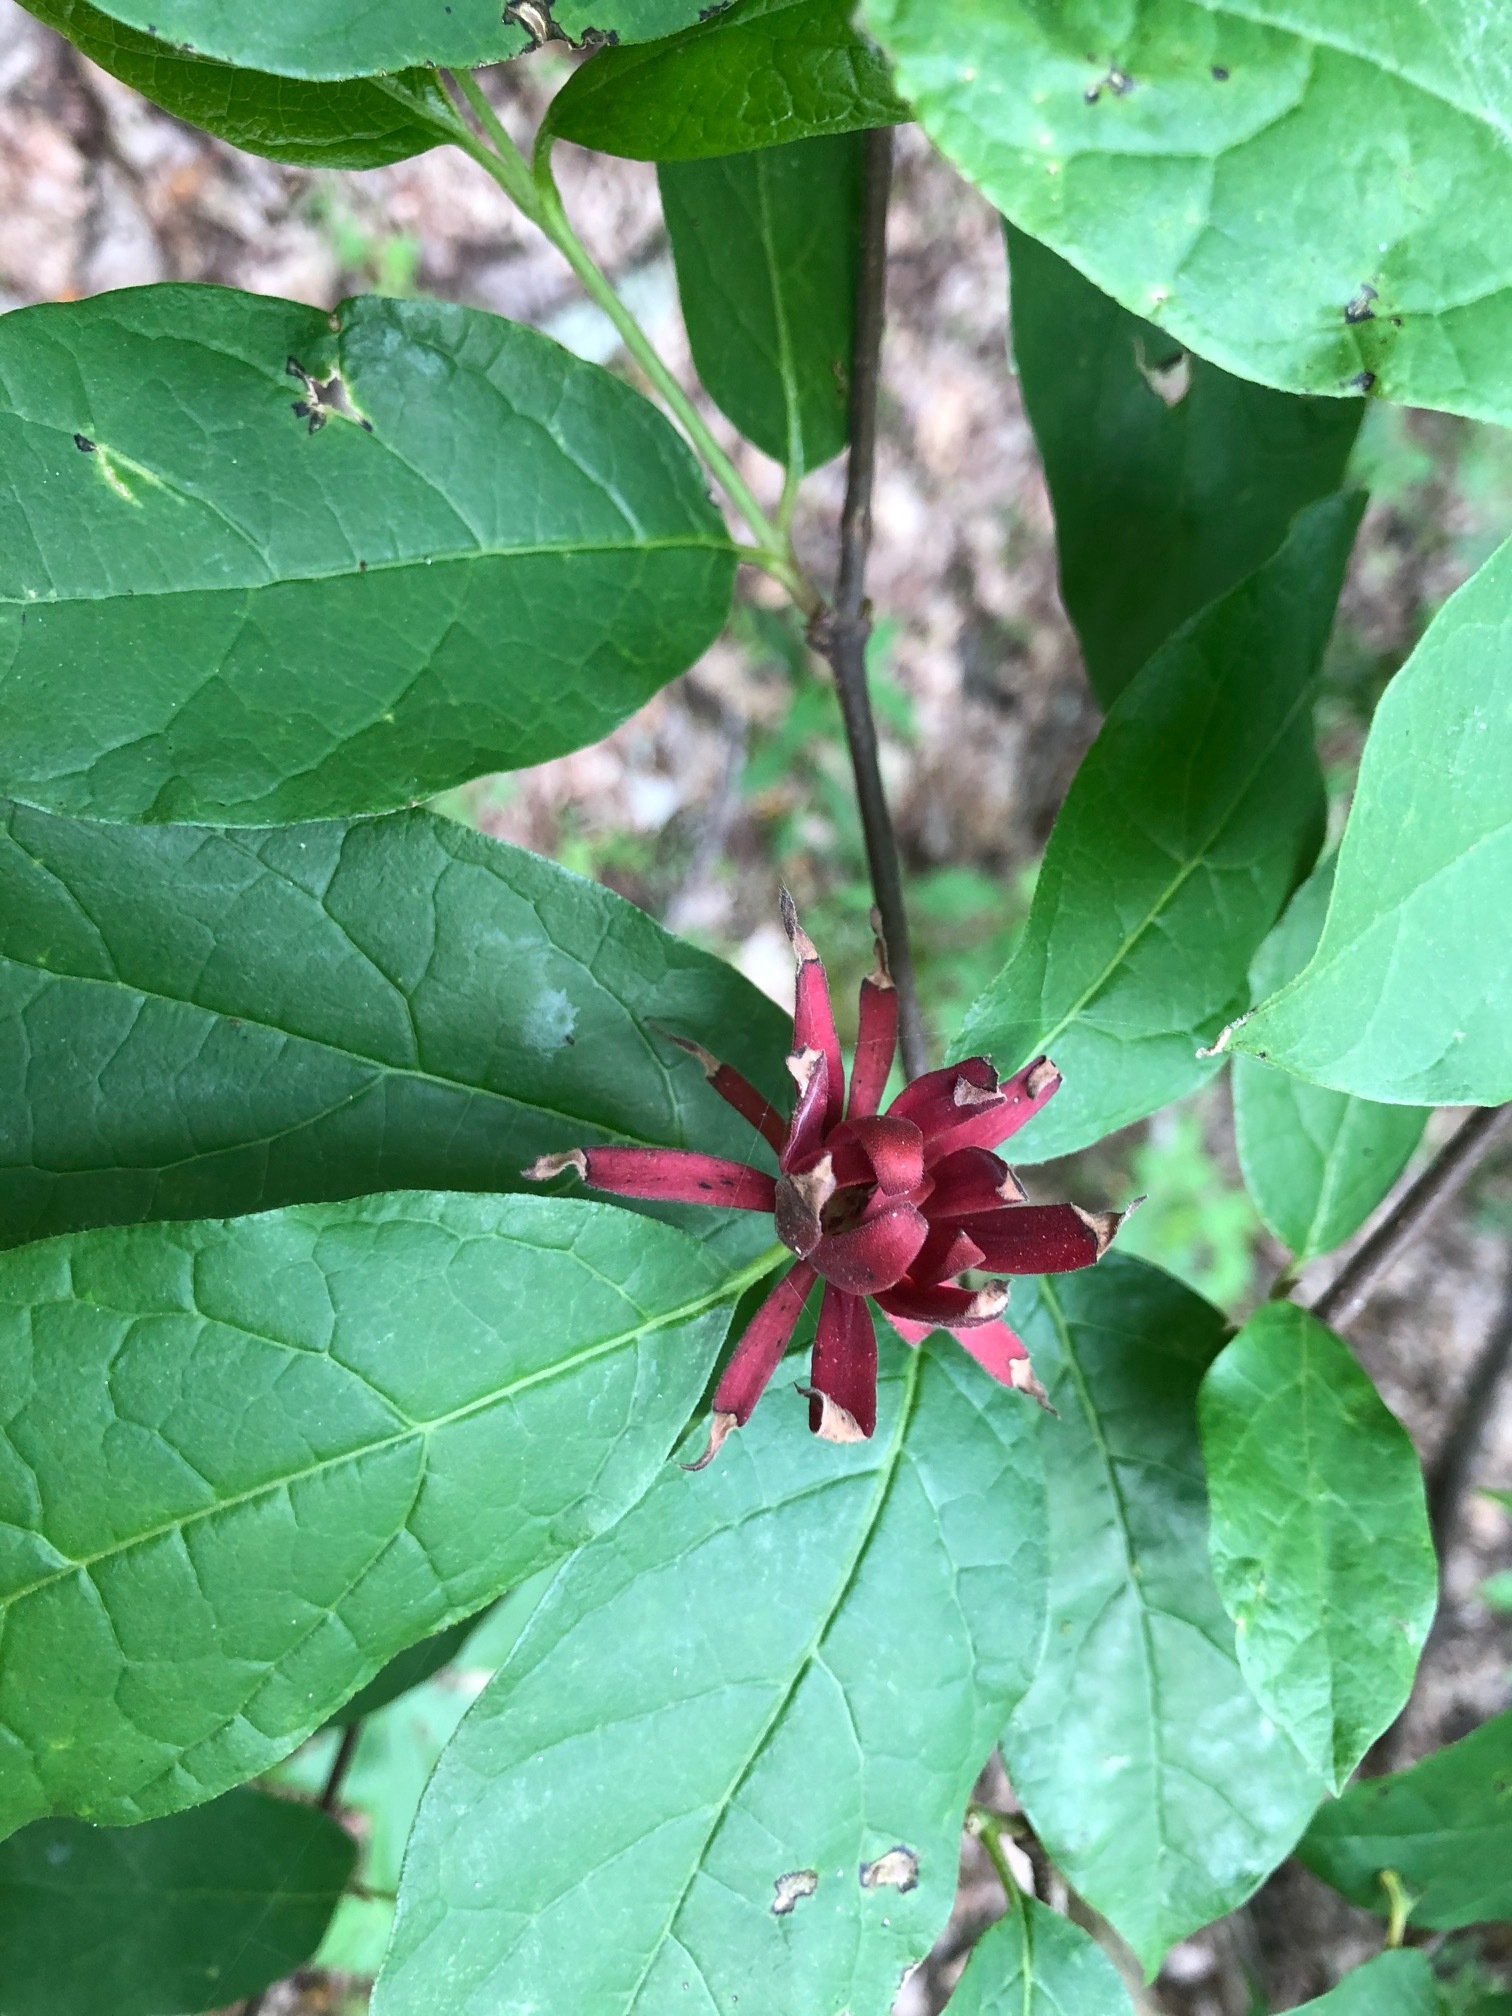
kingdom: Plantae
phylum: Tracheophyta
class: Magnoliopsida
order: Laurales
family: Calycanthaceae
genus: Calycanthus
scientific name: Calycanthus floridus
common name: Carolina-allspice
